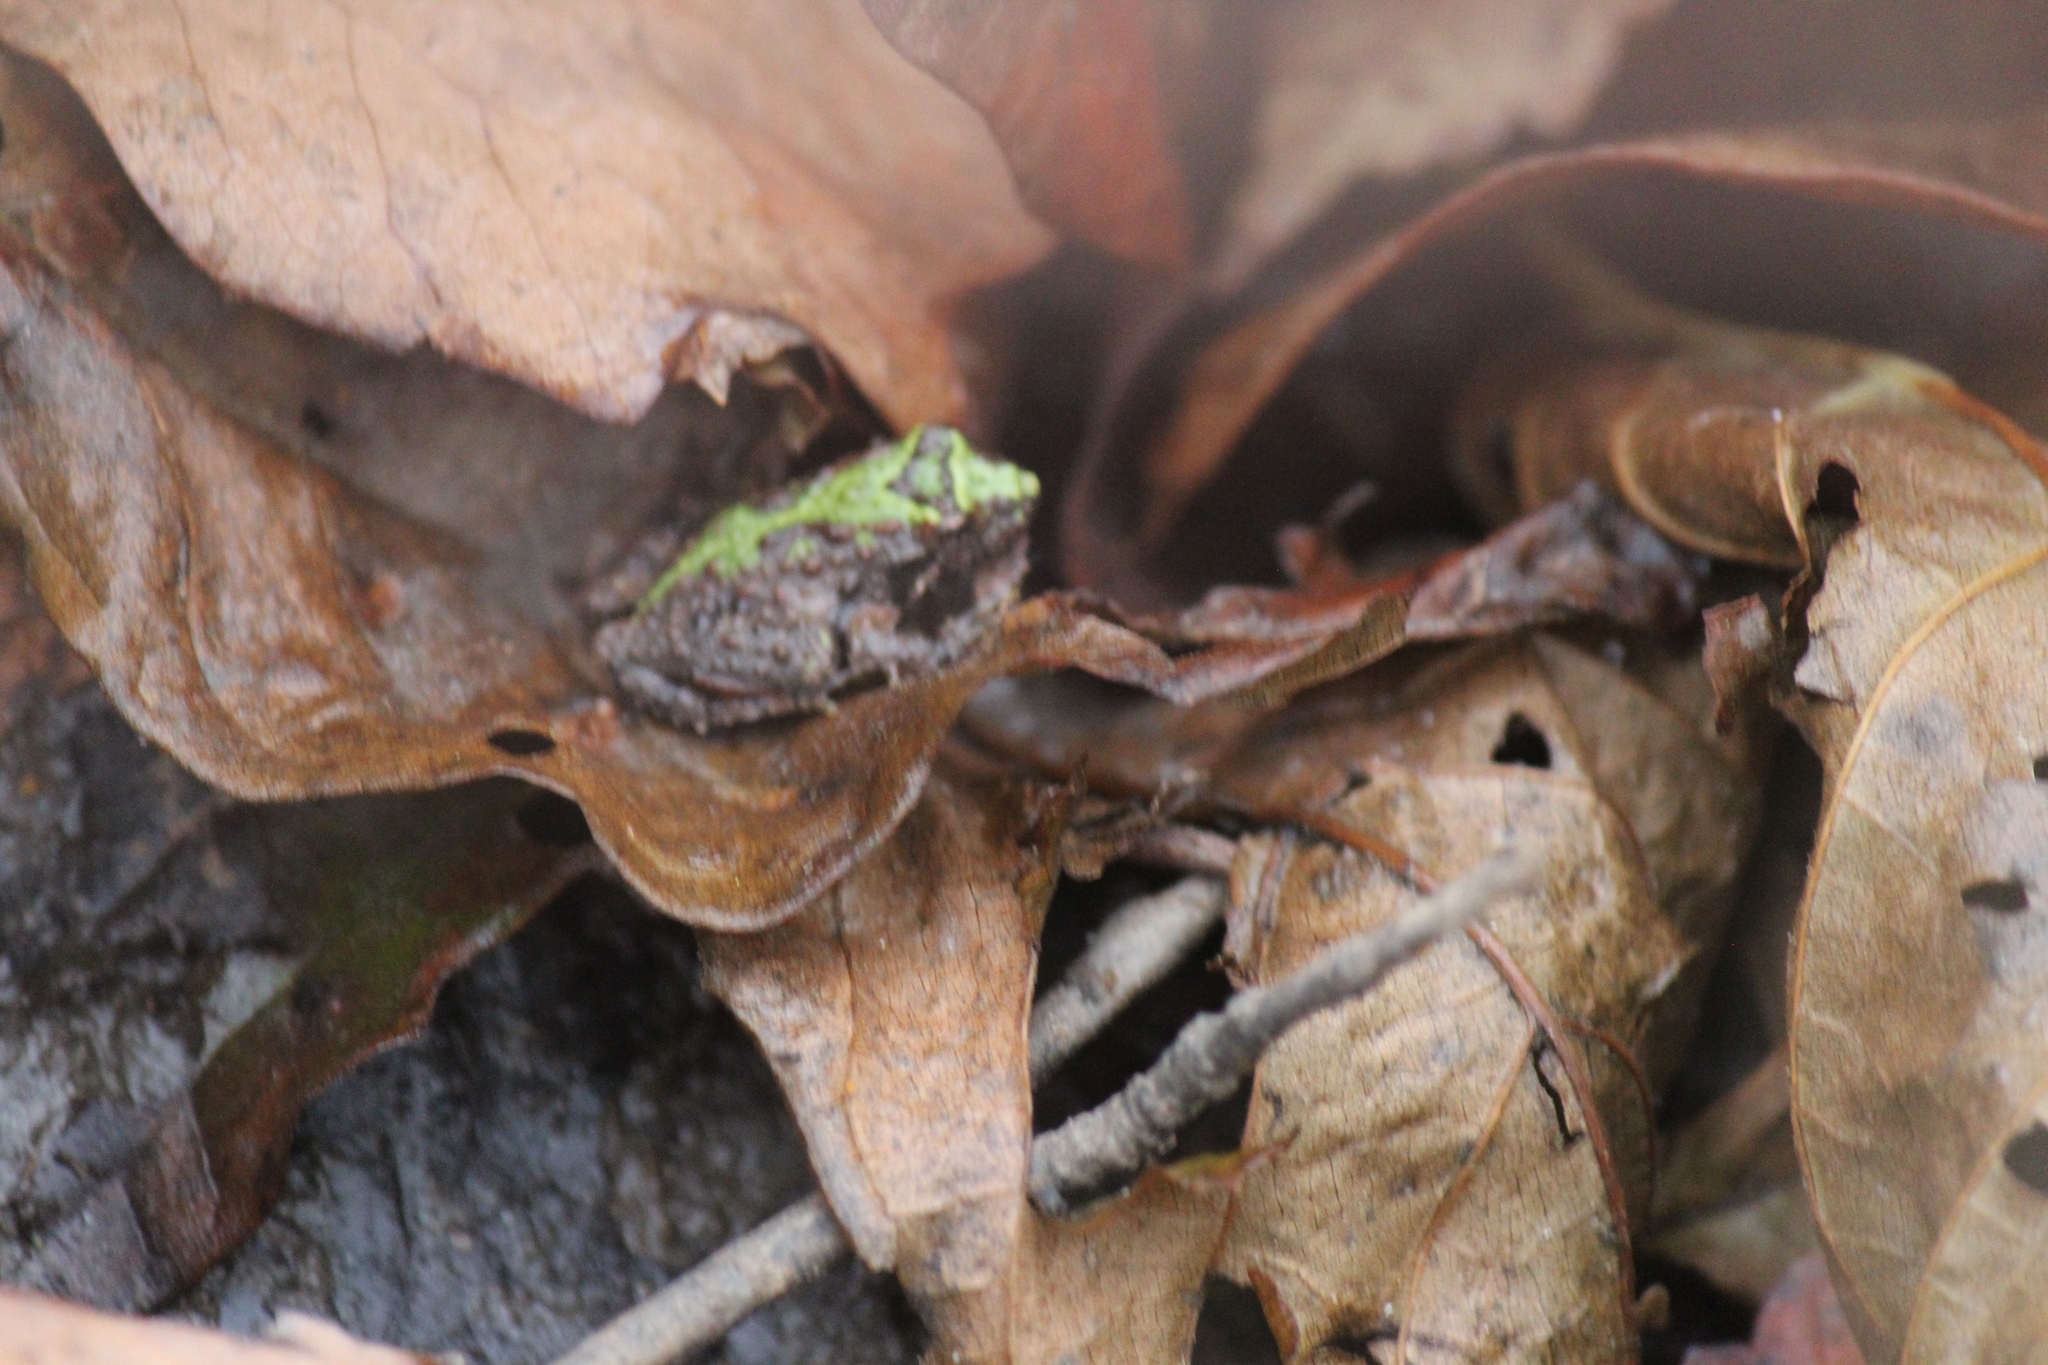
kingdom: Animalia
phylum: Chordata
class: Amphibia
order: Anura
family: Hylidae
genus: Acris
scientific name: Acris crepitans
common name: Northern cricket frog
